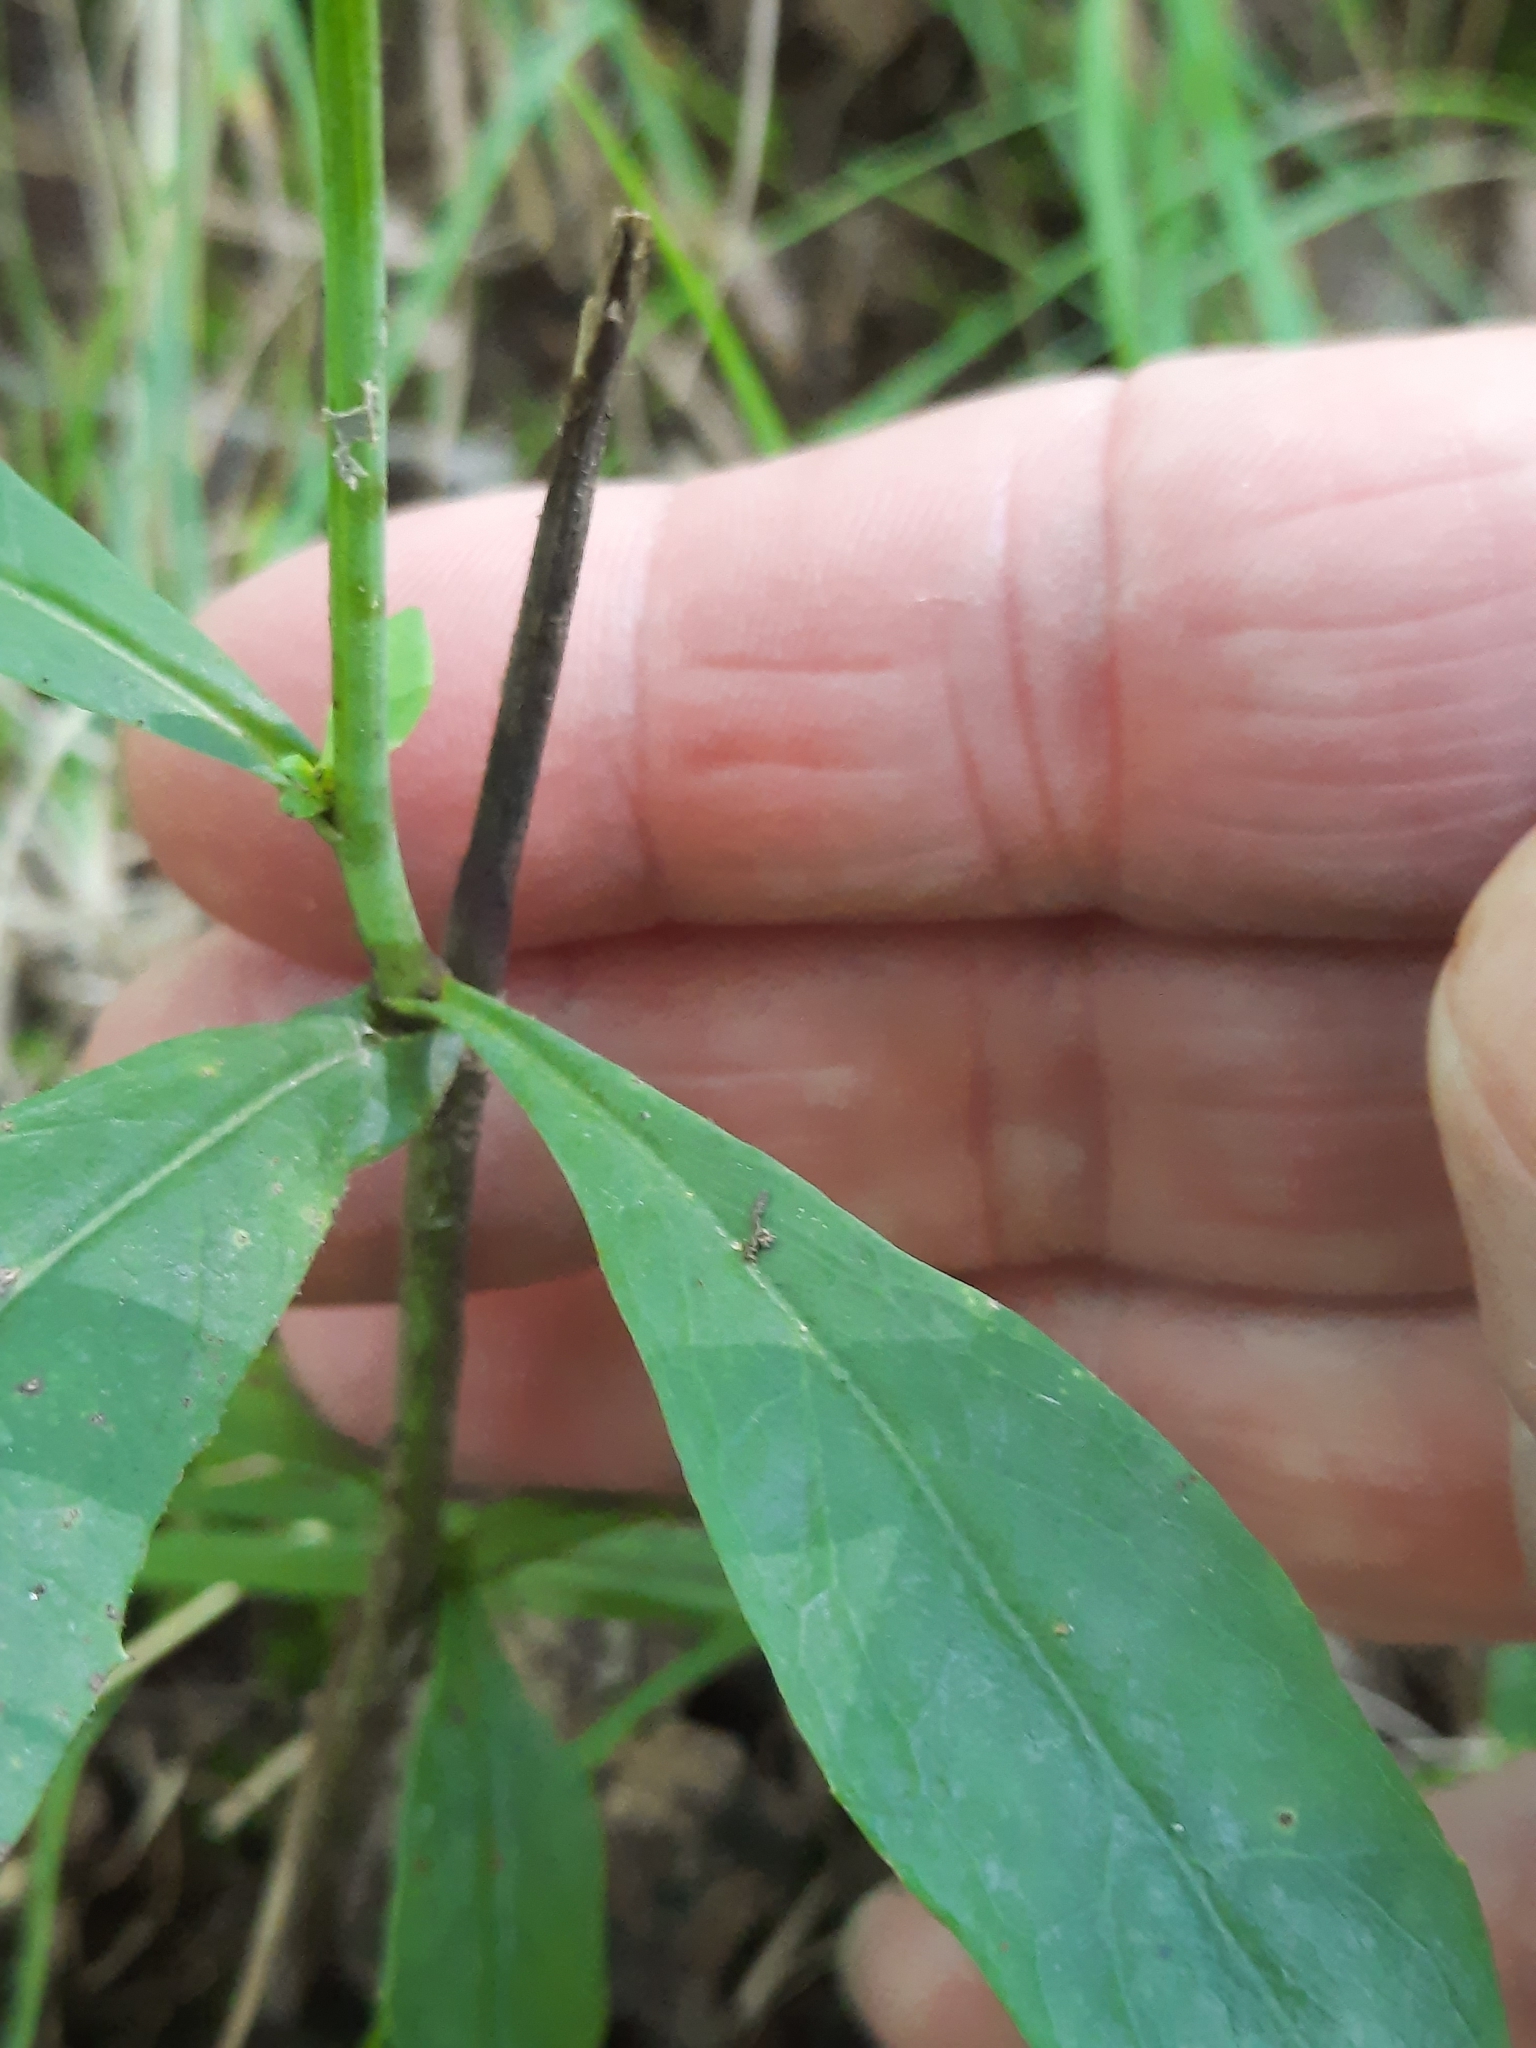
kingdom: Plantae
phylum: Tracheophyta
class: Magnoliopsida
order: Asterales
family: Asteraceae
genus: Hieracium
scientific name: Hieracium paniculatum
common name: Allegheny hawkweed
